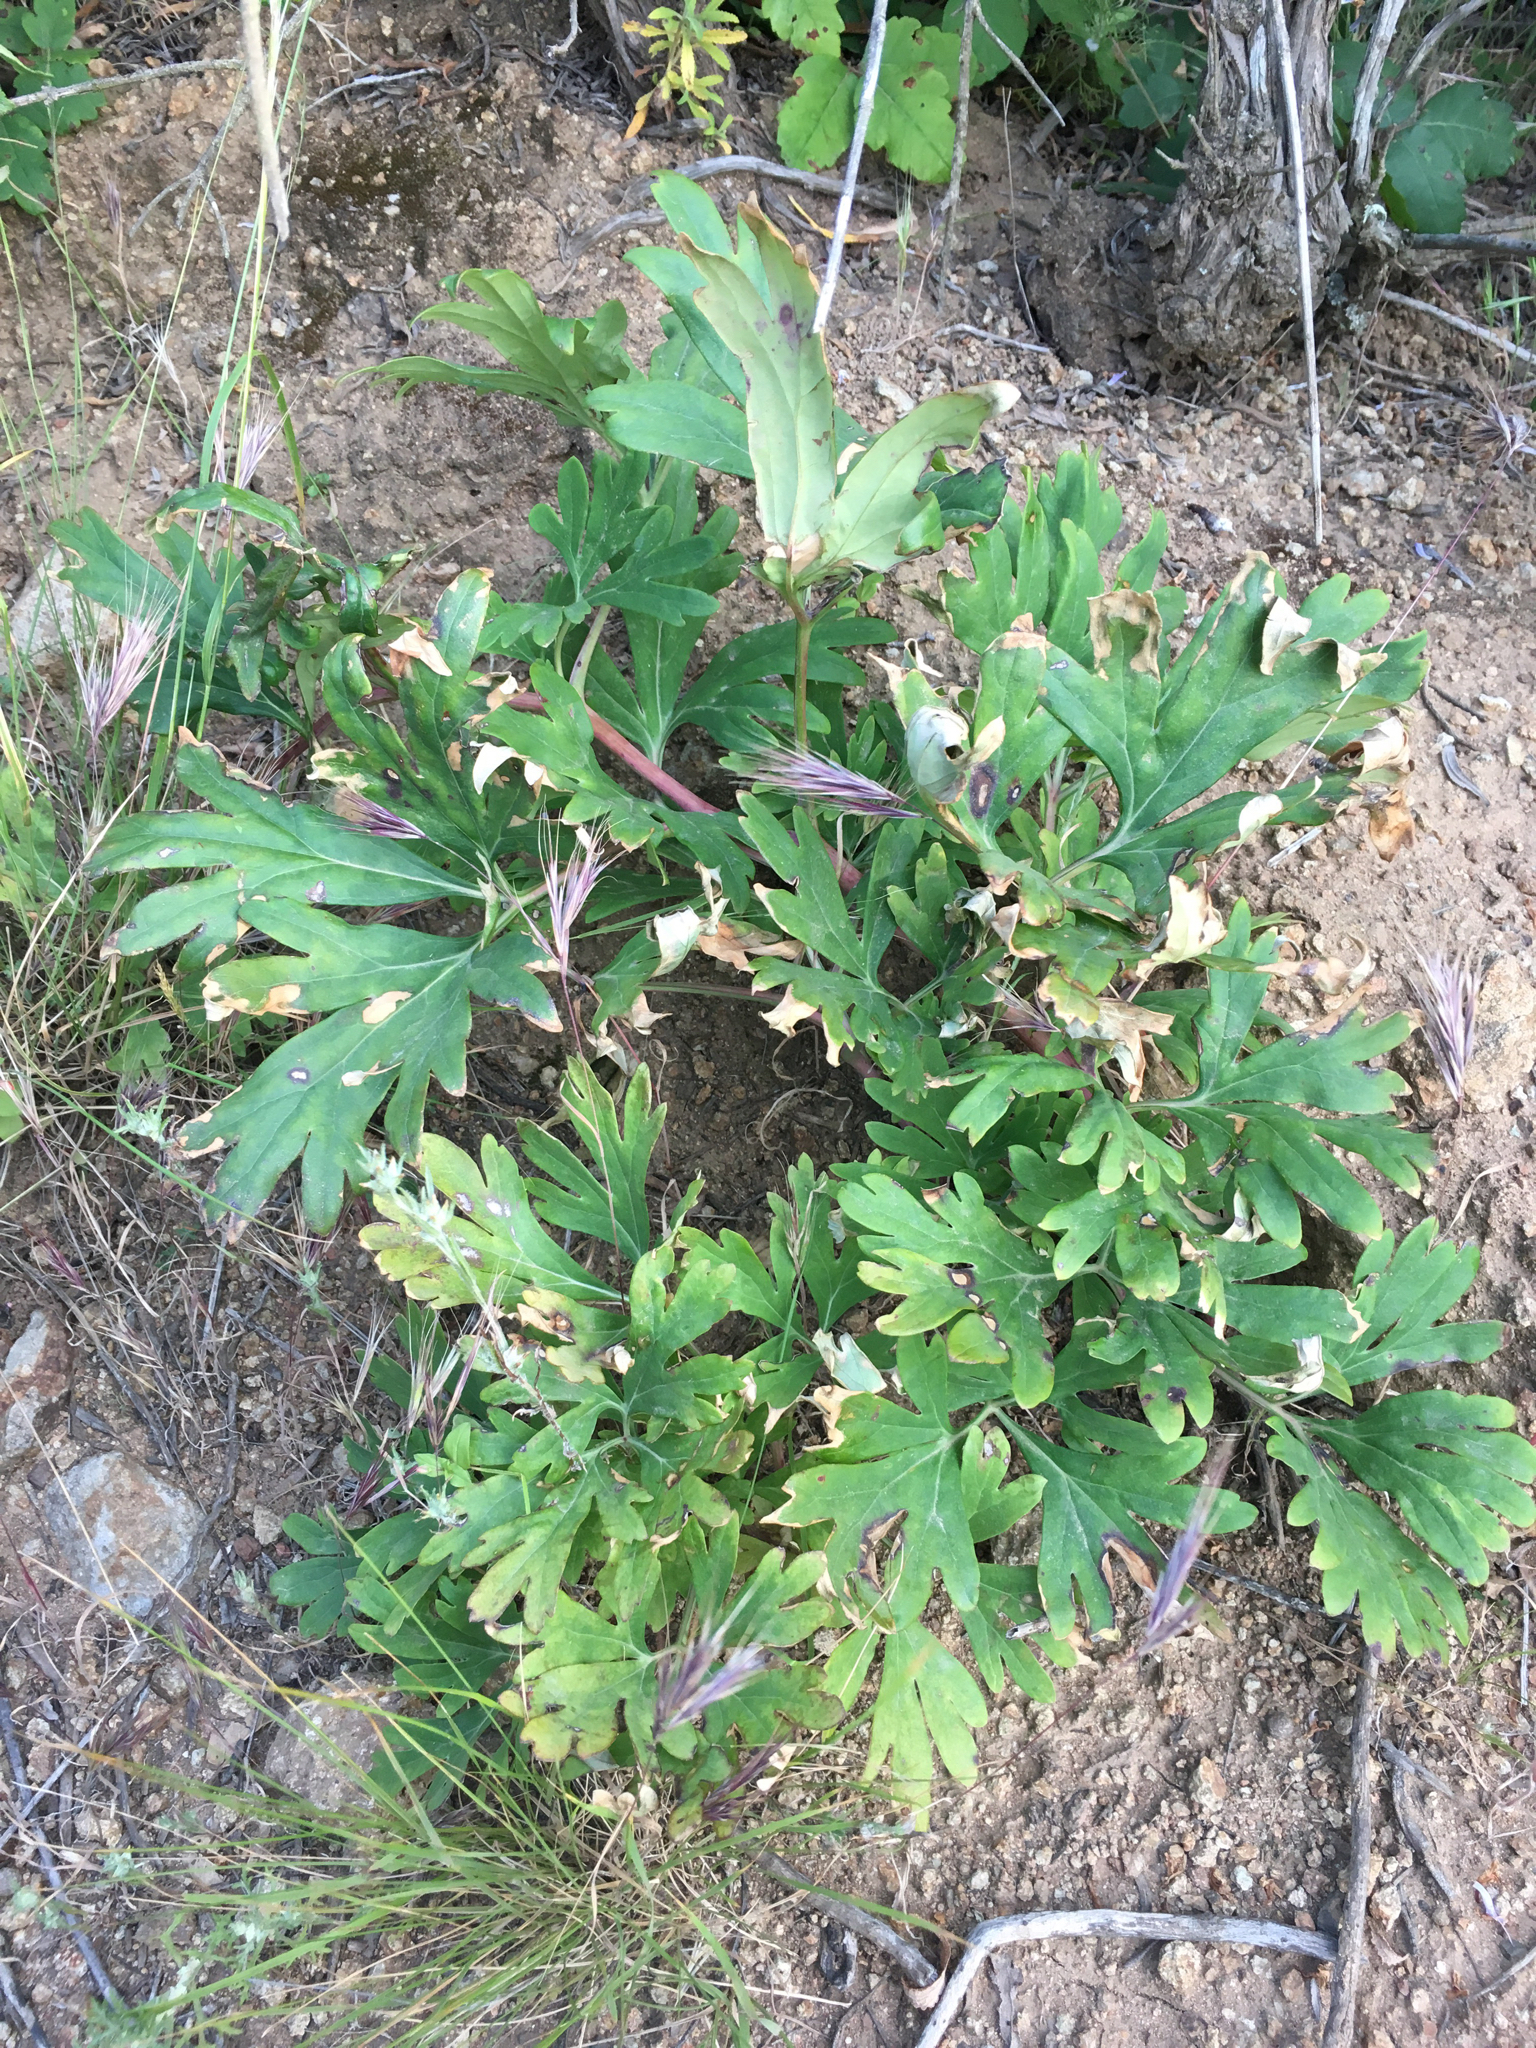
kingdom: Plantae
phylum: Tracheophyta
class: Magnoliopsida
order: Saxifragales
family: Paeoniaceae
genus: Paeonia
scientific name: Paeonia californica
